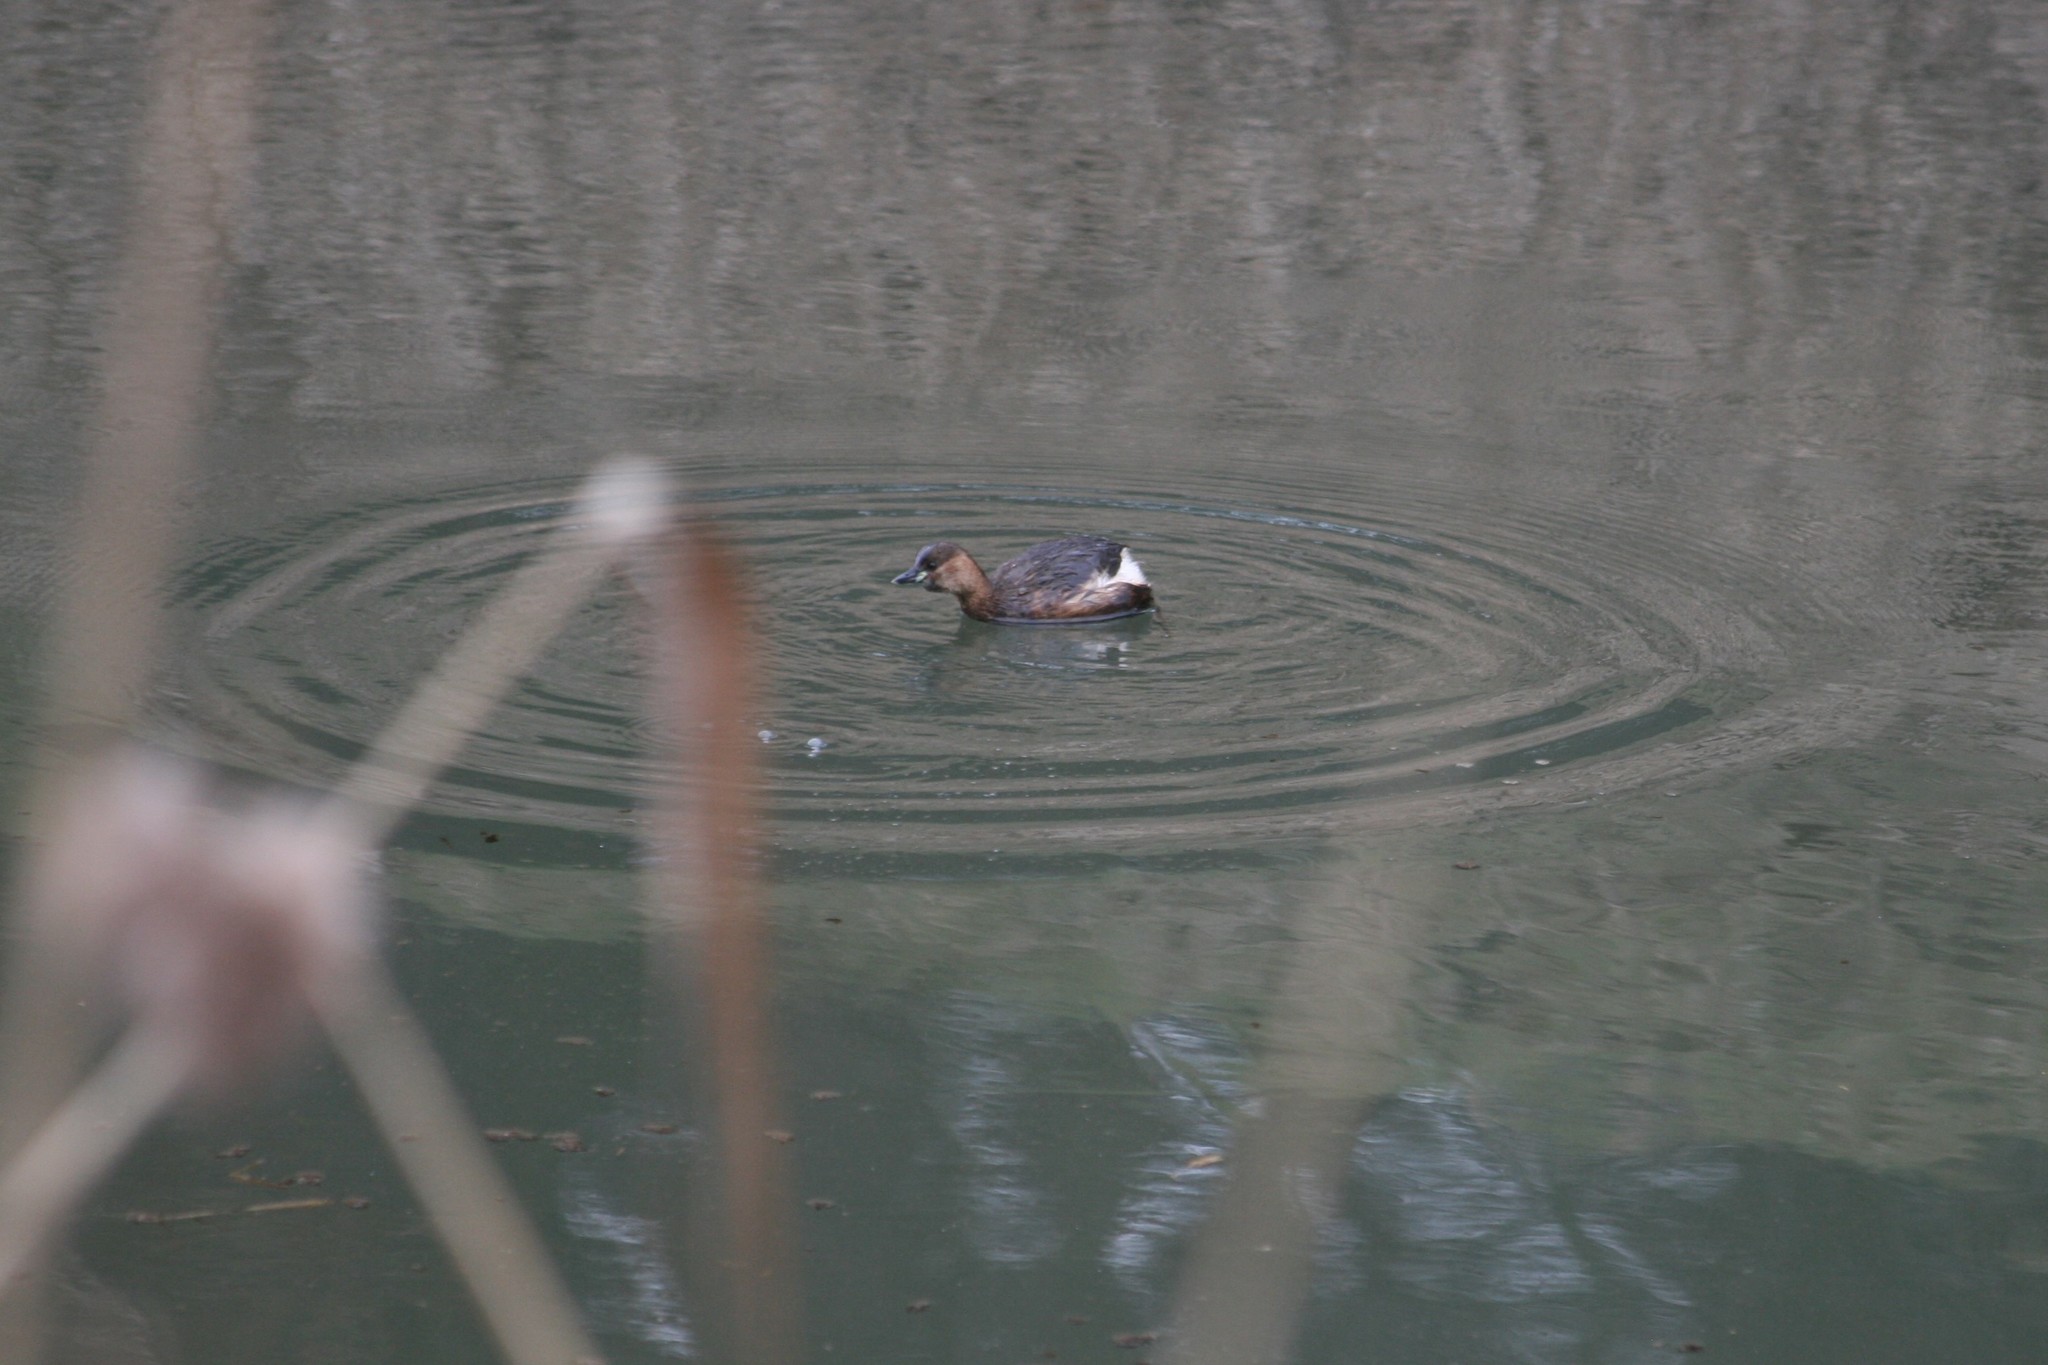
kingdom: Animalia
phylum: Chordata
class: Aves
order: Podicipediformes
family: Podicipedidae
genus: Tachybaptus
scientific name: Tachybaptus ruficollis
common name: Little grebe
